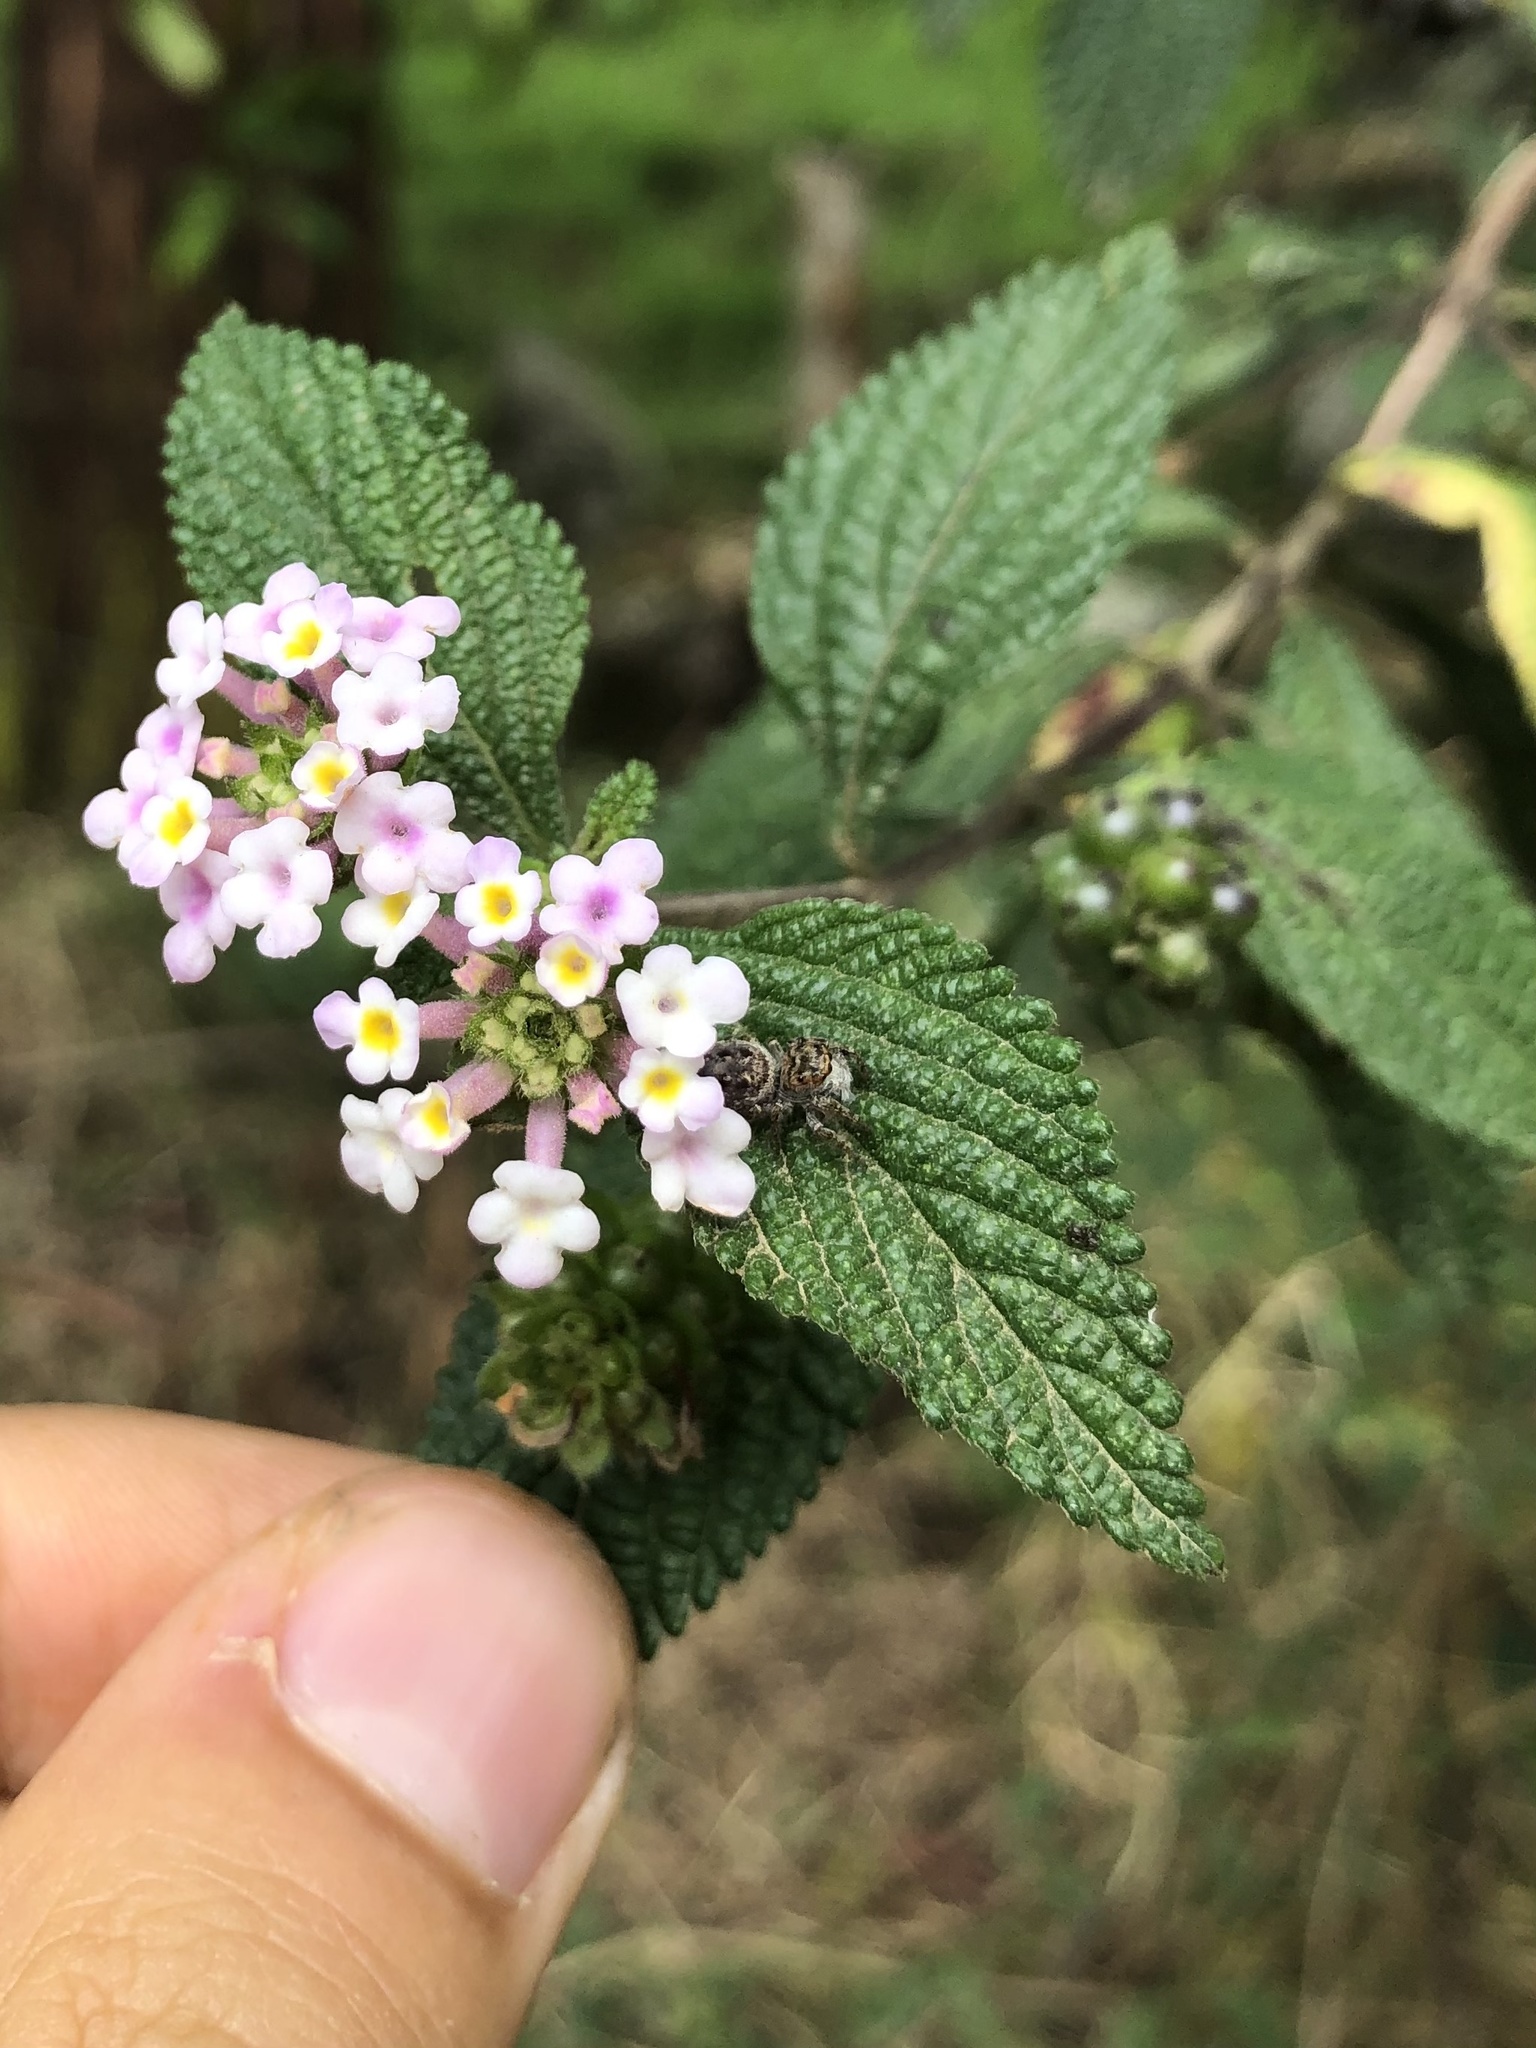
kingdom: Plantae
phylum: Tracheophyta
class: Magnoliopsida
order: Lamiales
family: Verbenaceae
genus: Lantana
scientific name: Lantana hirta
